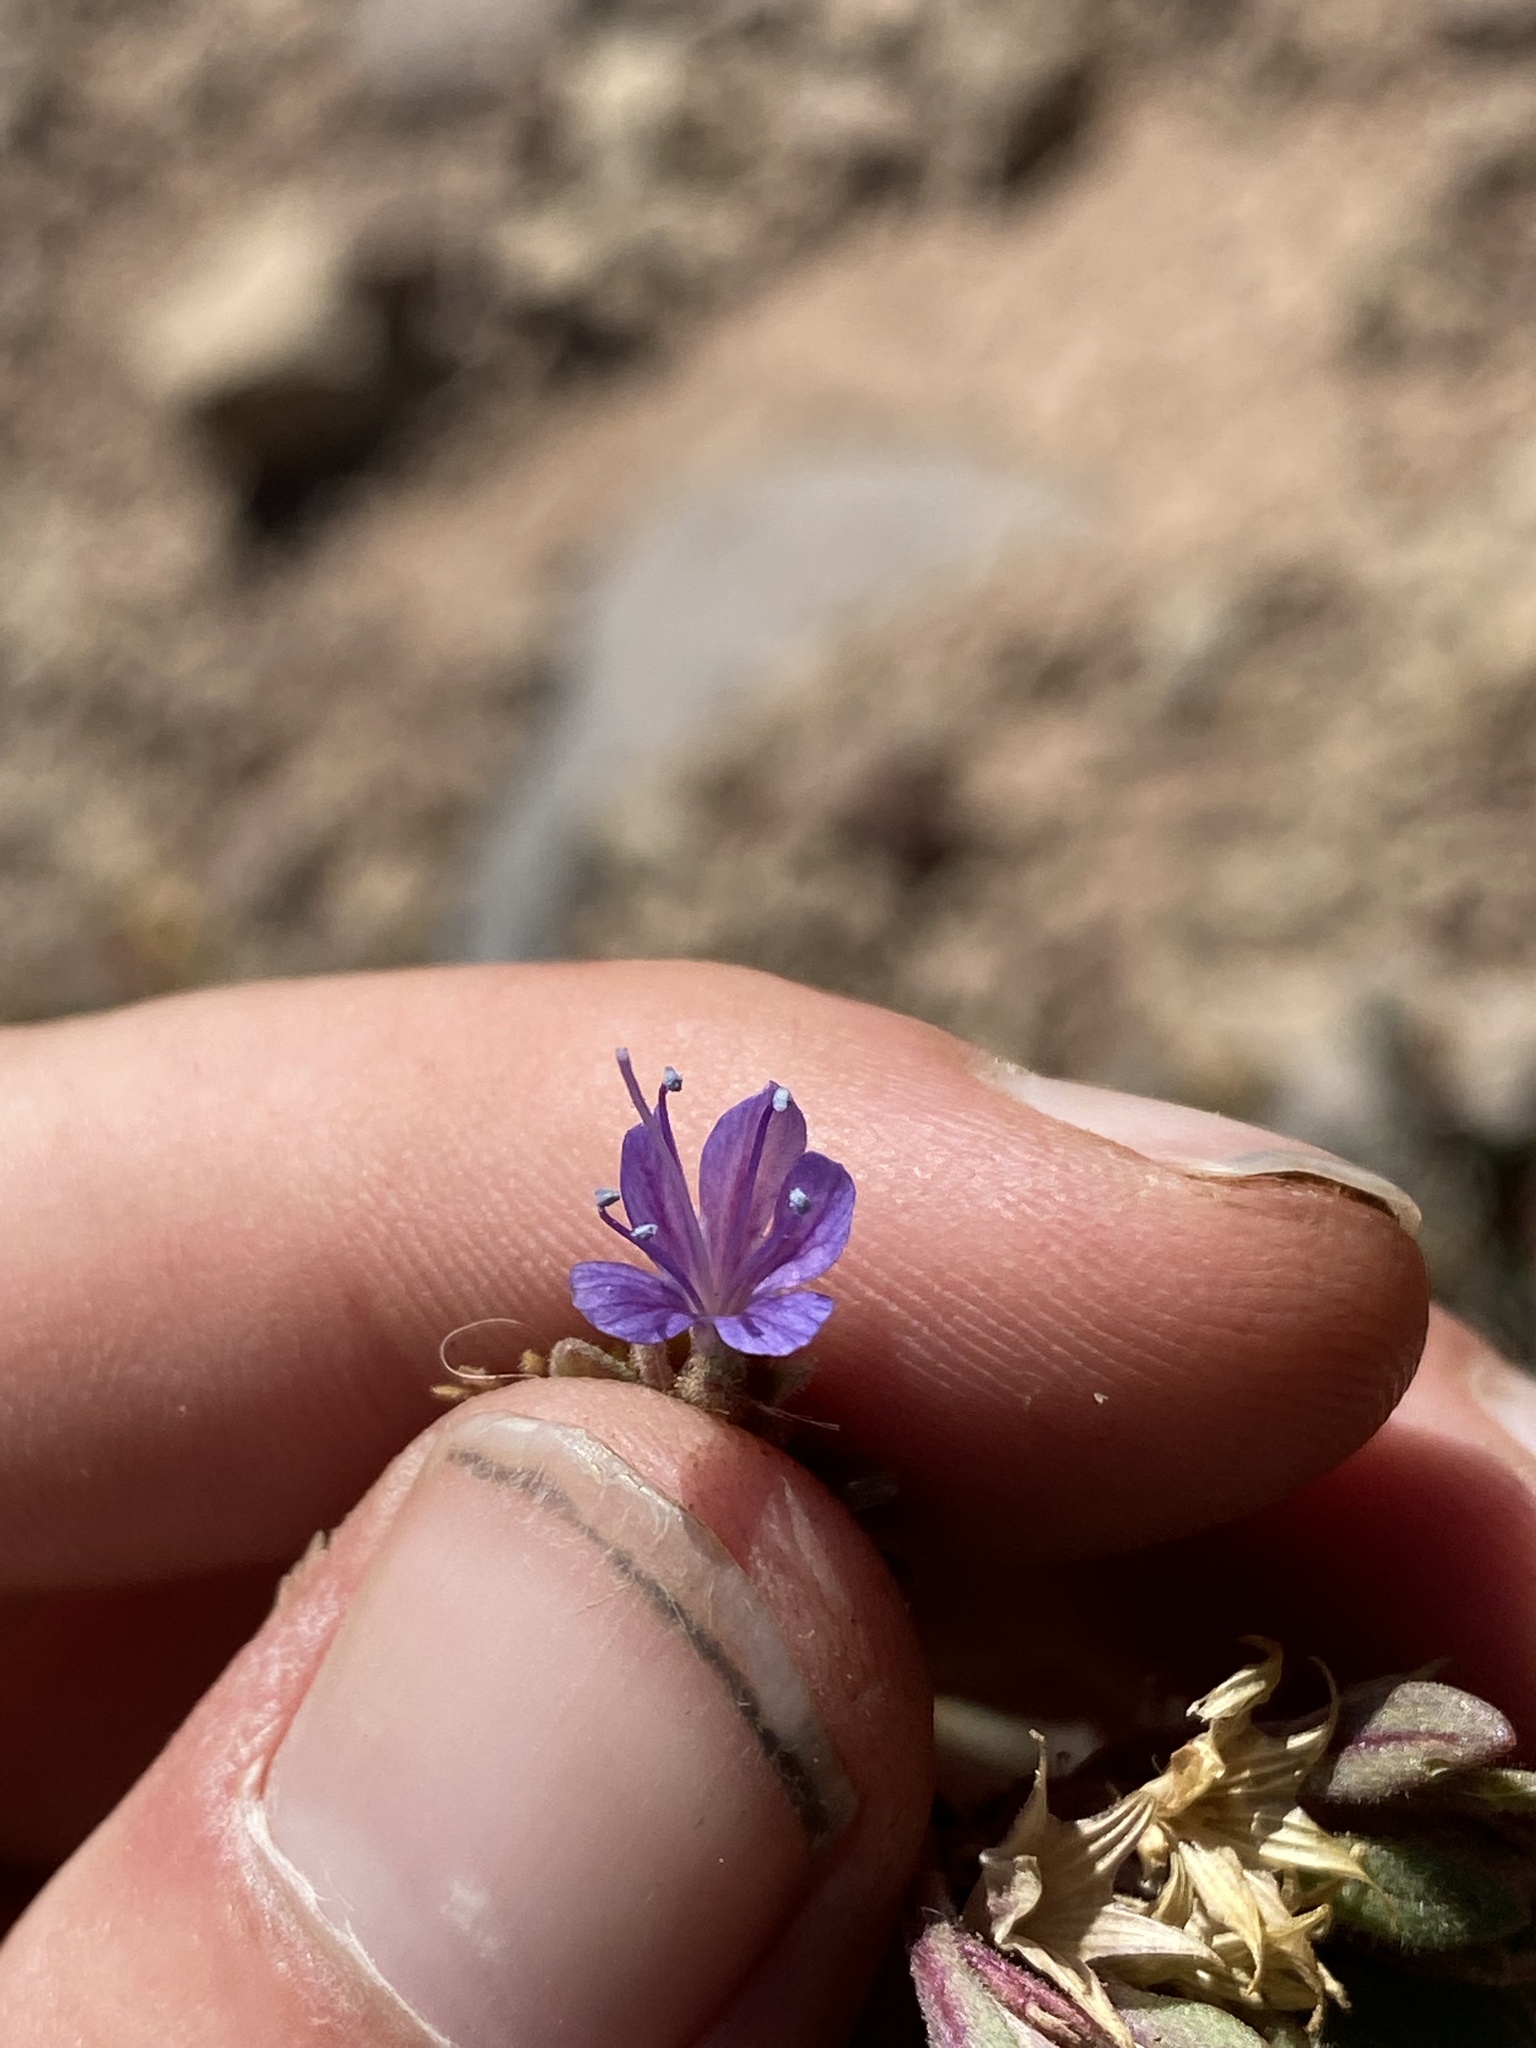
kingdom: Plantae
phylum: Tracheophyta
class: Magnoliopsida
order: Ericales
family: Polemoniaceae
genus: Collomia
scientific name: Collomia debilis
